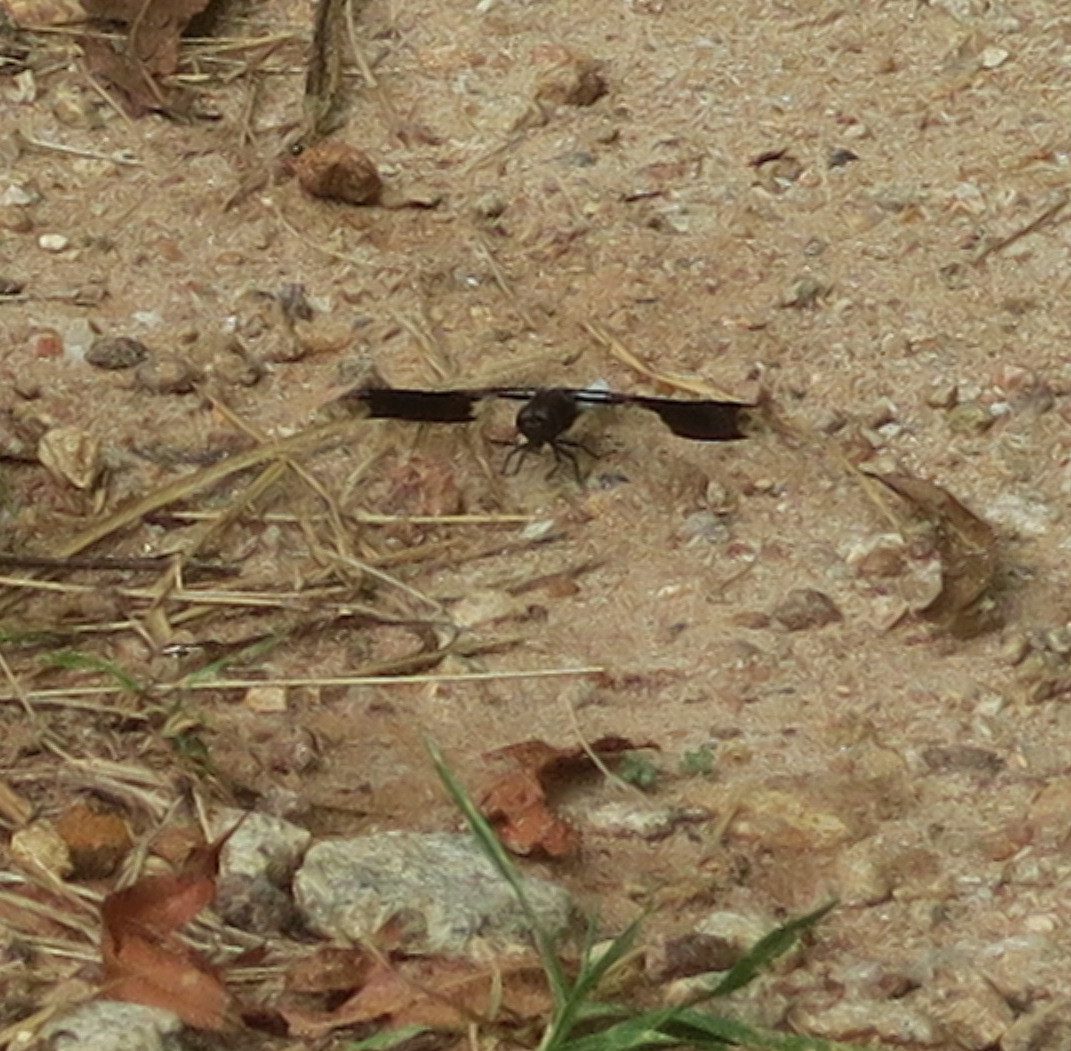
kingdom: Animalia
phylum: Arthropoda
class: Insecta
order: Odonata
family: Libellulidae
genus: Plathemis
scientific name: Plathemis lydia
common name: Common whitetail
